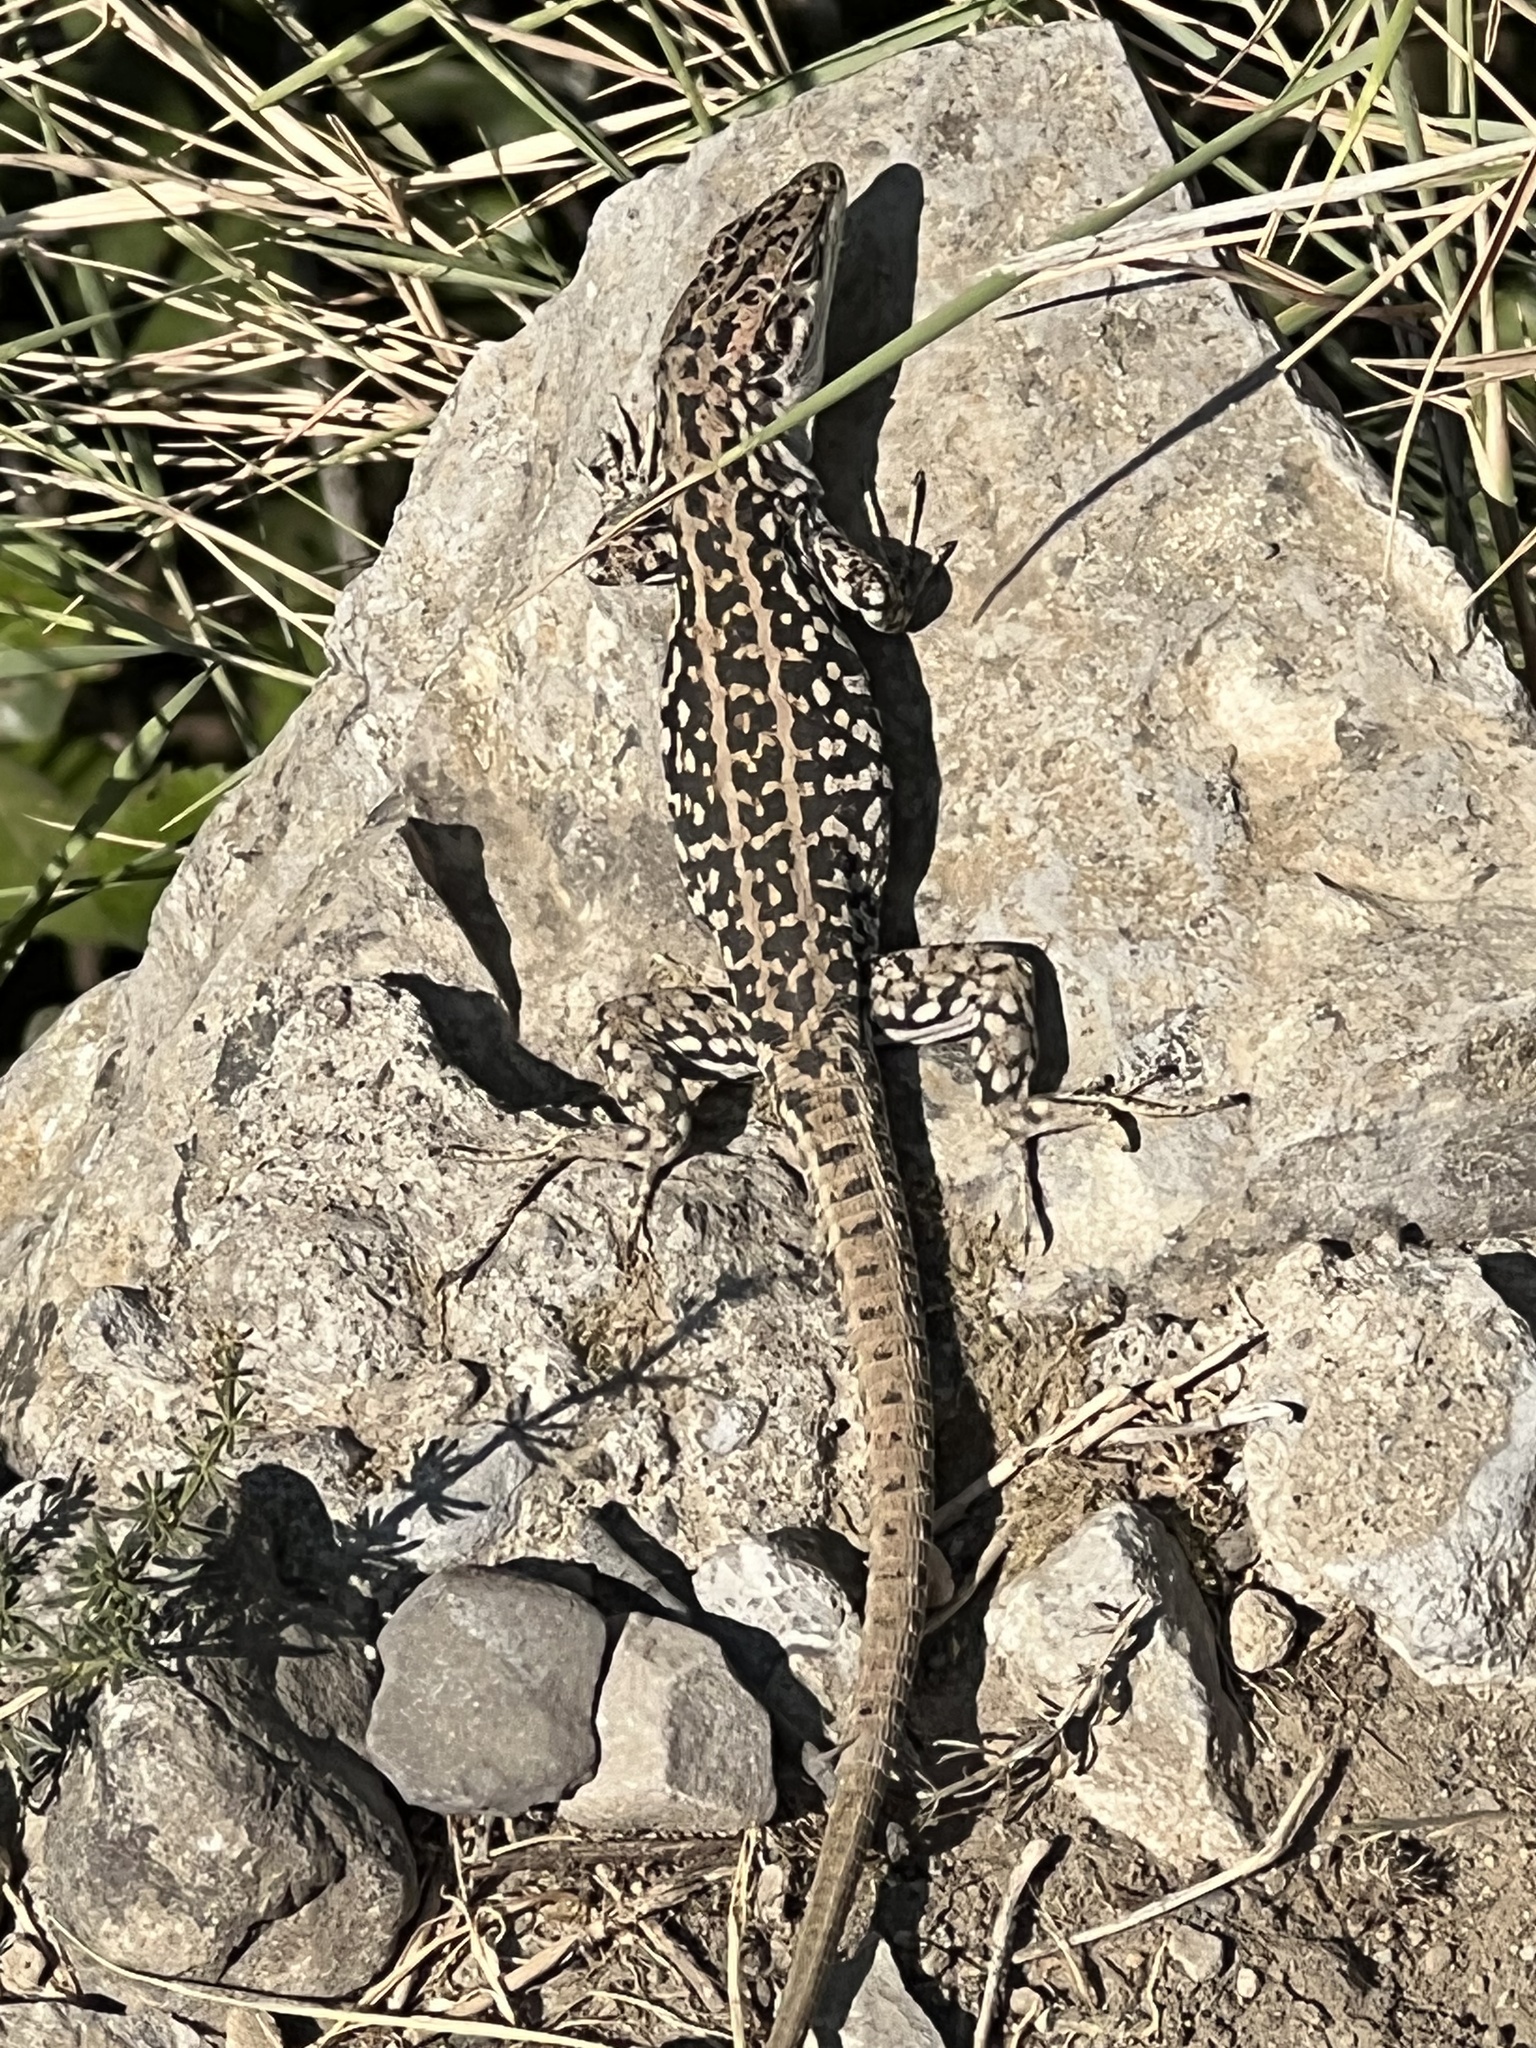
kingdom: Animalia
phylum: Chordata
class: Squamata
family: Lacertidae
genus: Podarcis
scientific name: Podarcis siculus
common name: Italian wall lizard
